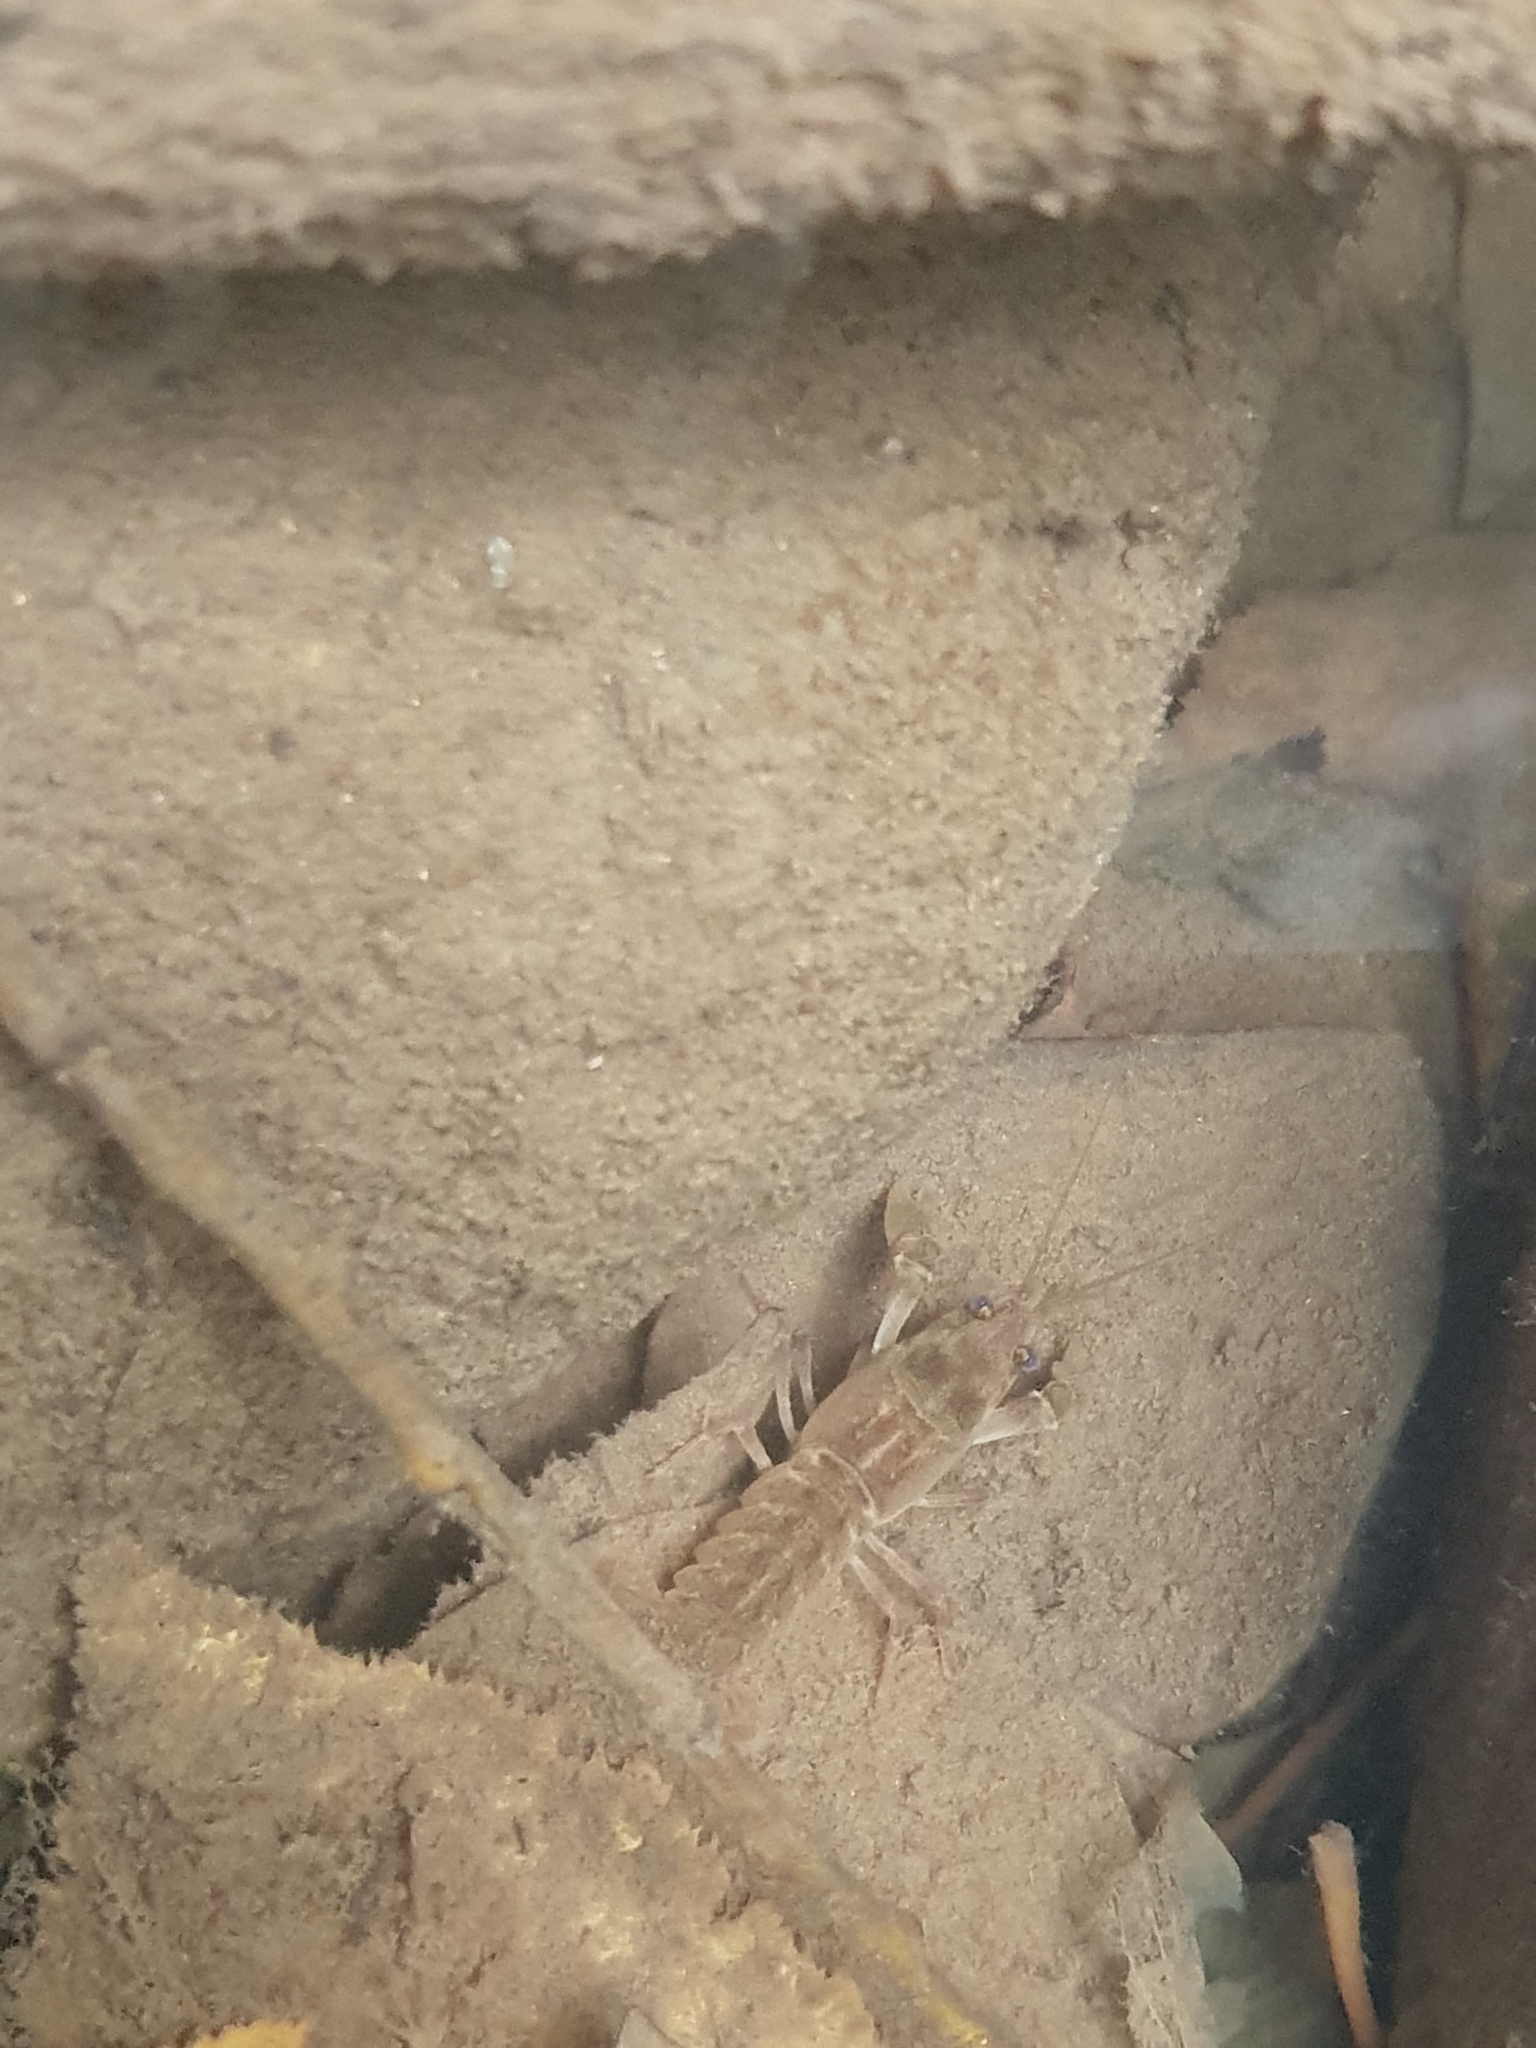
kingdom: Animalia
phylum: Arthropoda
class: Malacostraca
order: Decapoda
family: Astacidae
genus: Austropotamobius
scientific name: Austropotamobius pallipes
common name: White-clawed crayfish
